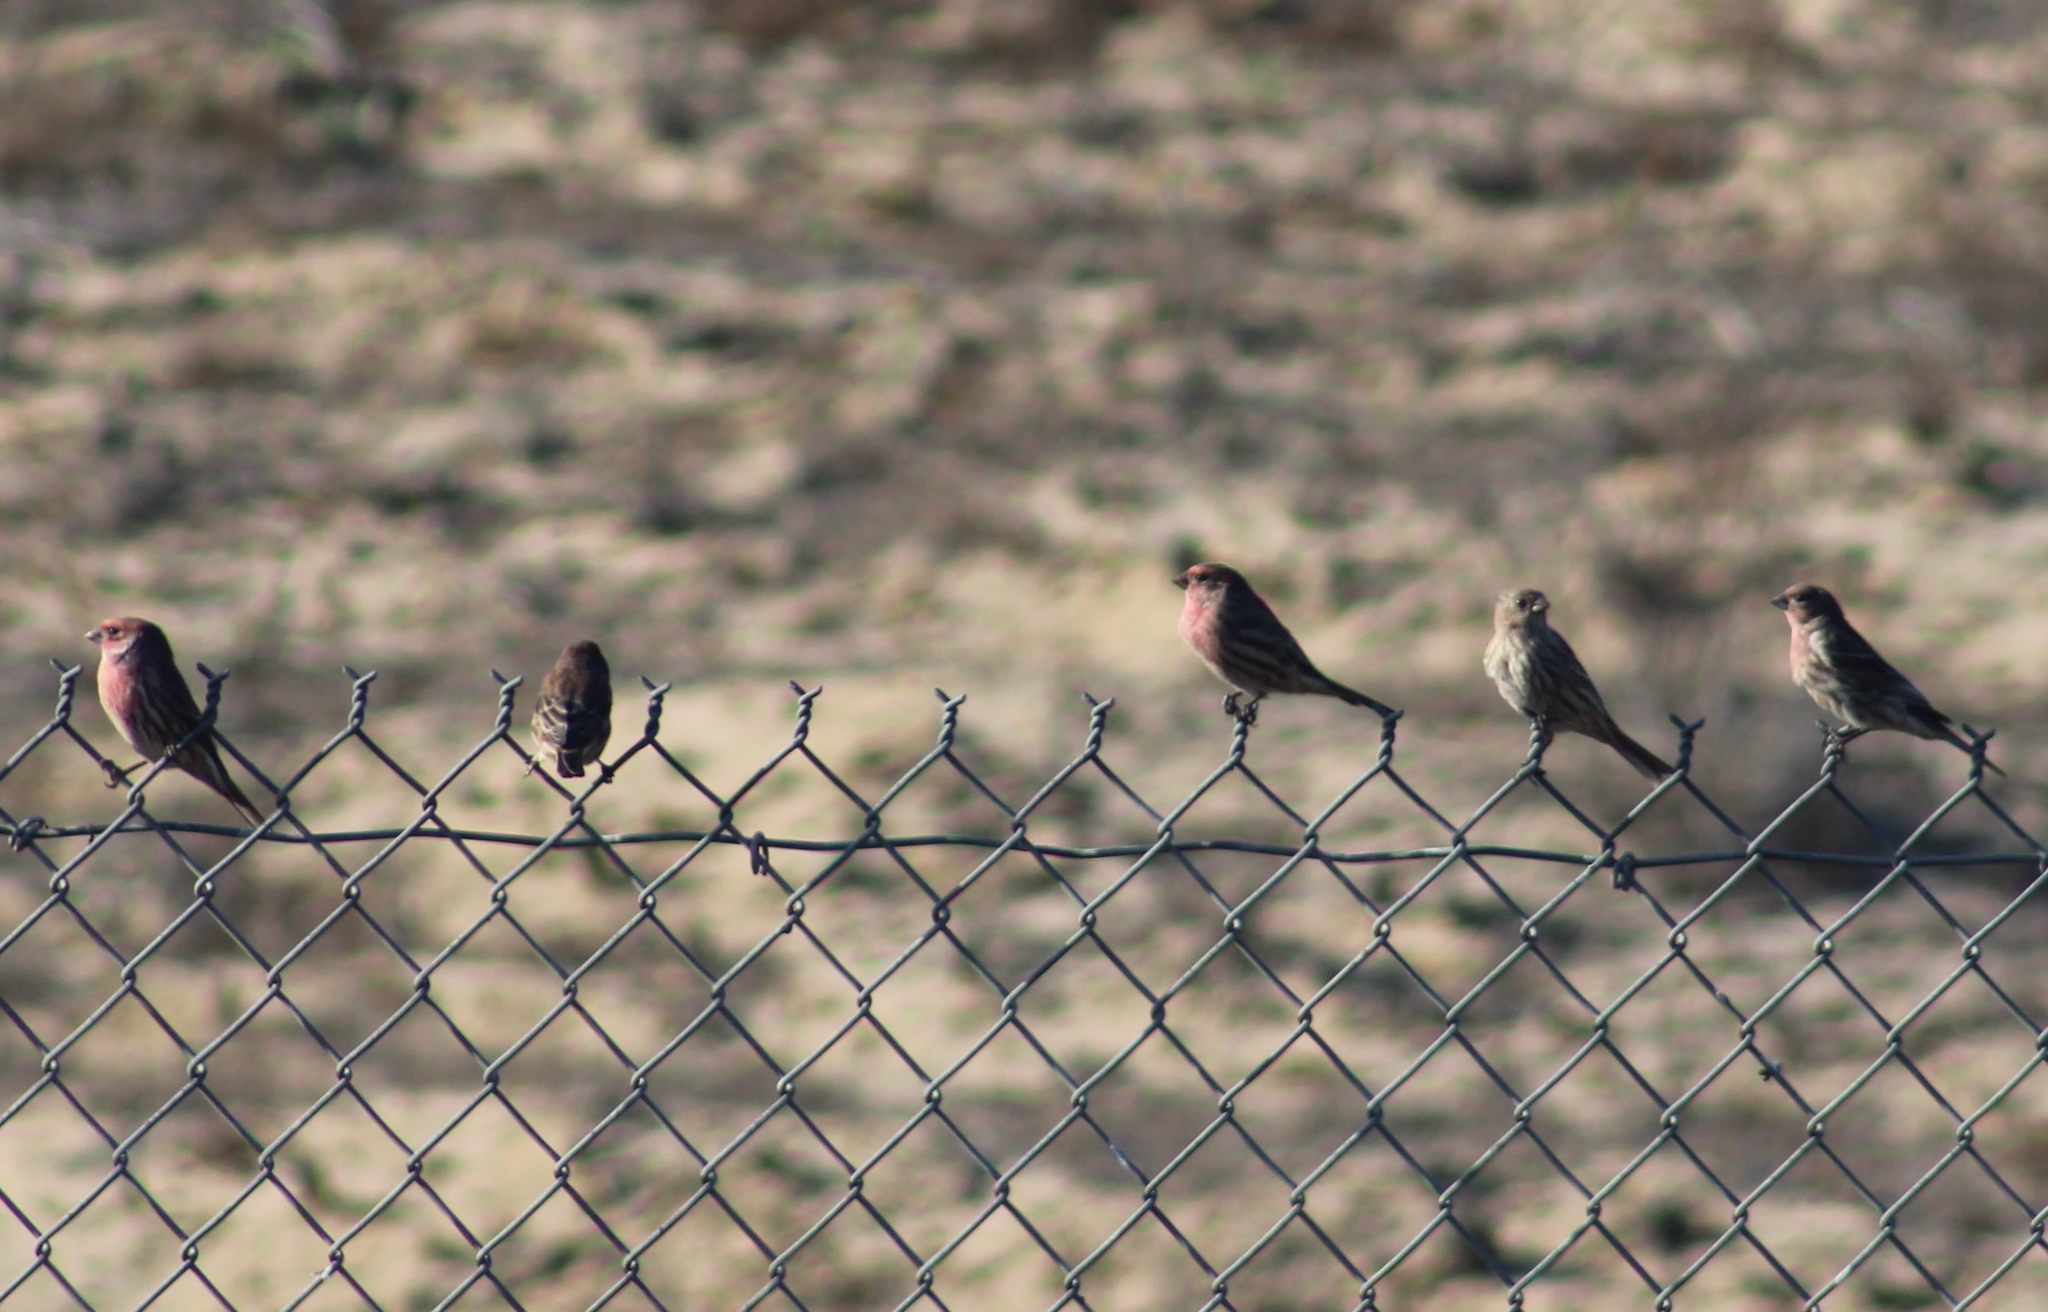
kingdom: Animalia
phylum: Chordata
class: Aves
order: Passeriformes
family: Fringillidae
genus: Haemorhous
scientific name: Haemorhous mexicanus
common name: House finch
